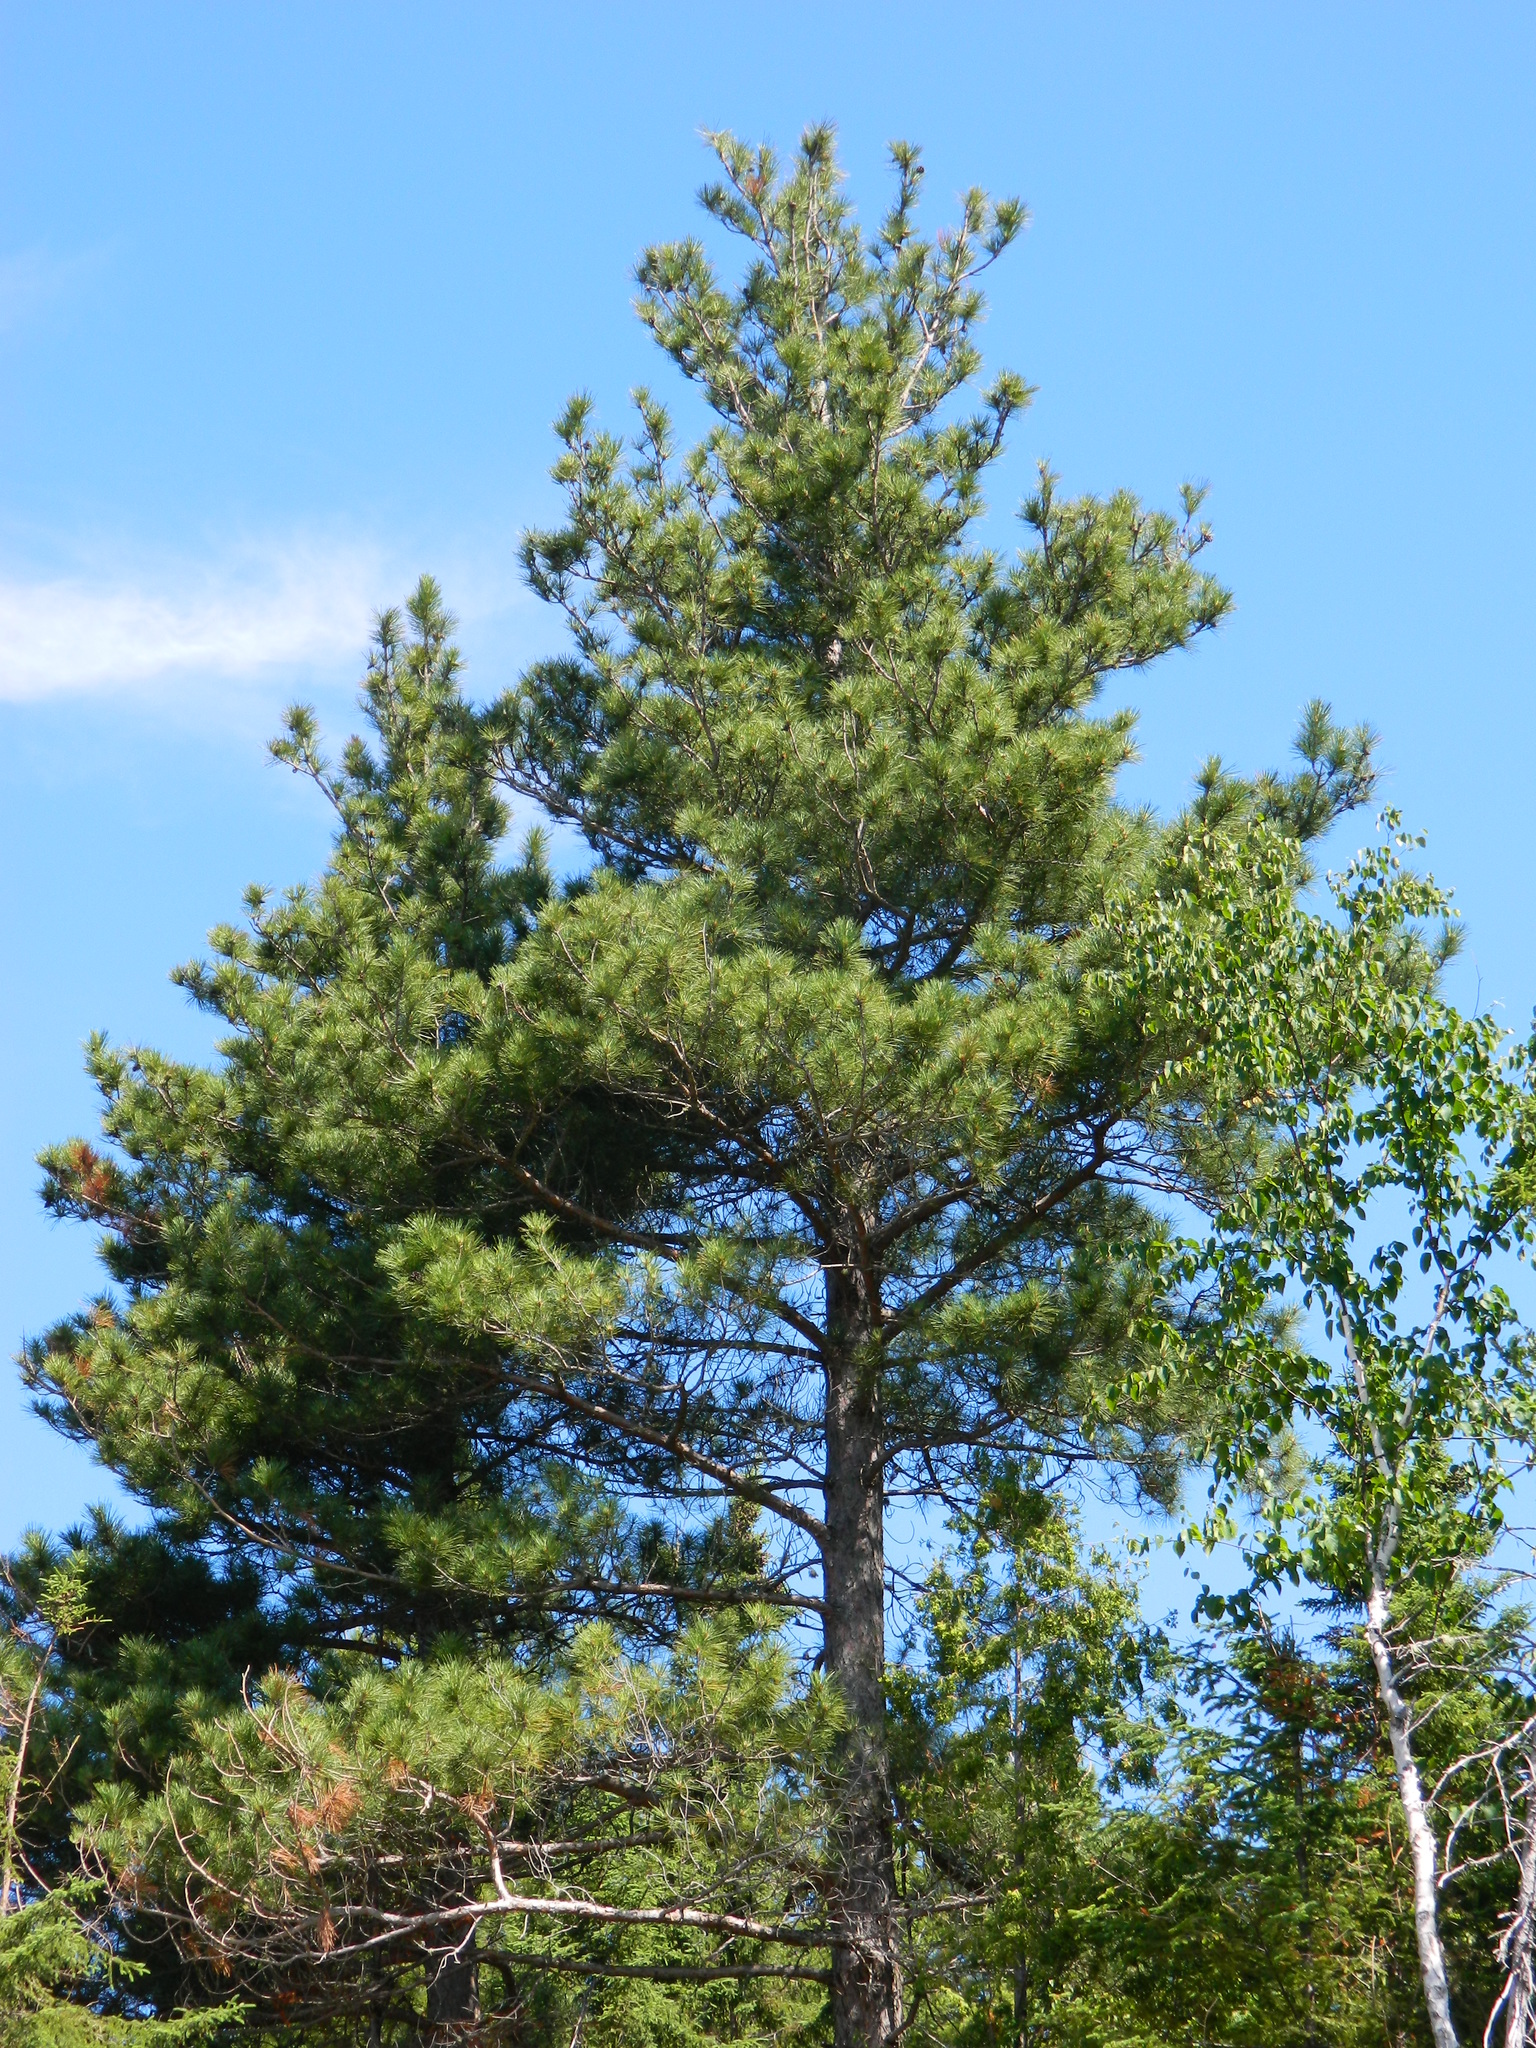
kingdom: Plantae
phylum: Tracheophyta
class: Pinopsida
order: Pinales
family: Pinaceae
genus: Pinus
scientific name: Pinus resinosa
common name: Norway pine
